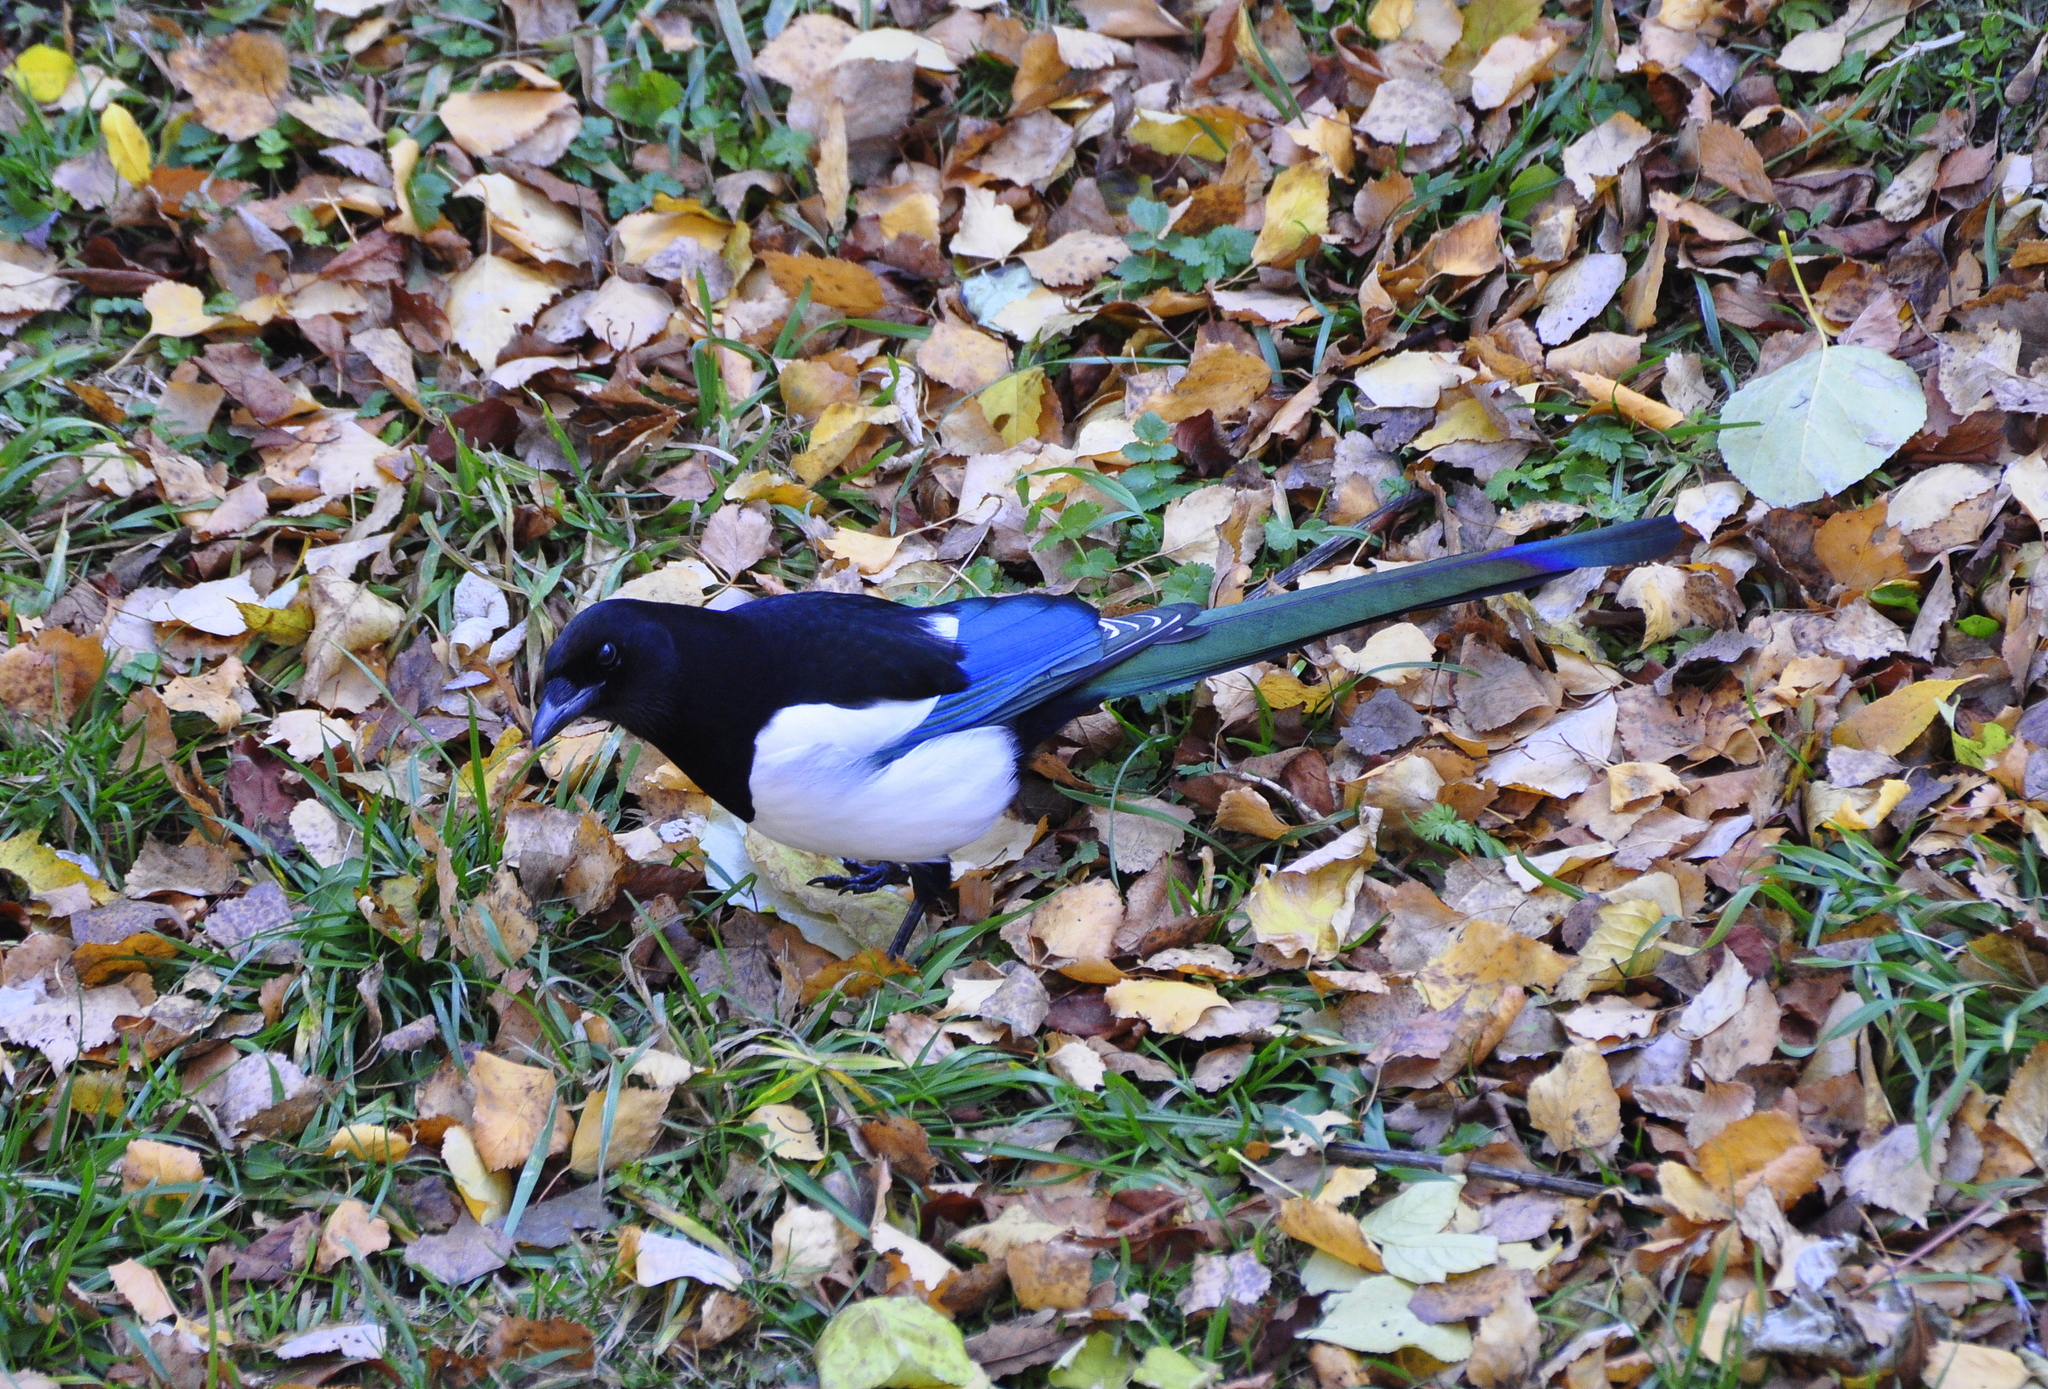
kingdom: Animalia
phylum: Chordata
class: Aves
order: Passeriformes
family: Corvidae
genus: Pica
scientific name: Pica pica
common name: Eurasian magpie
